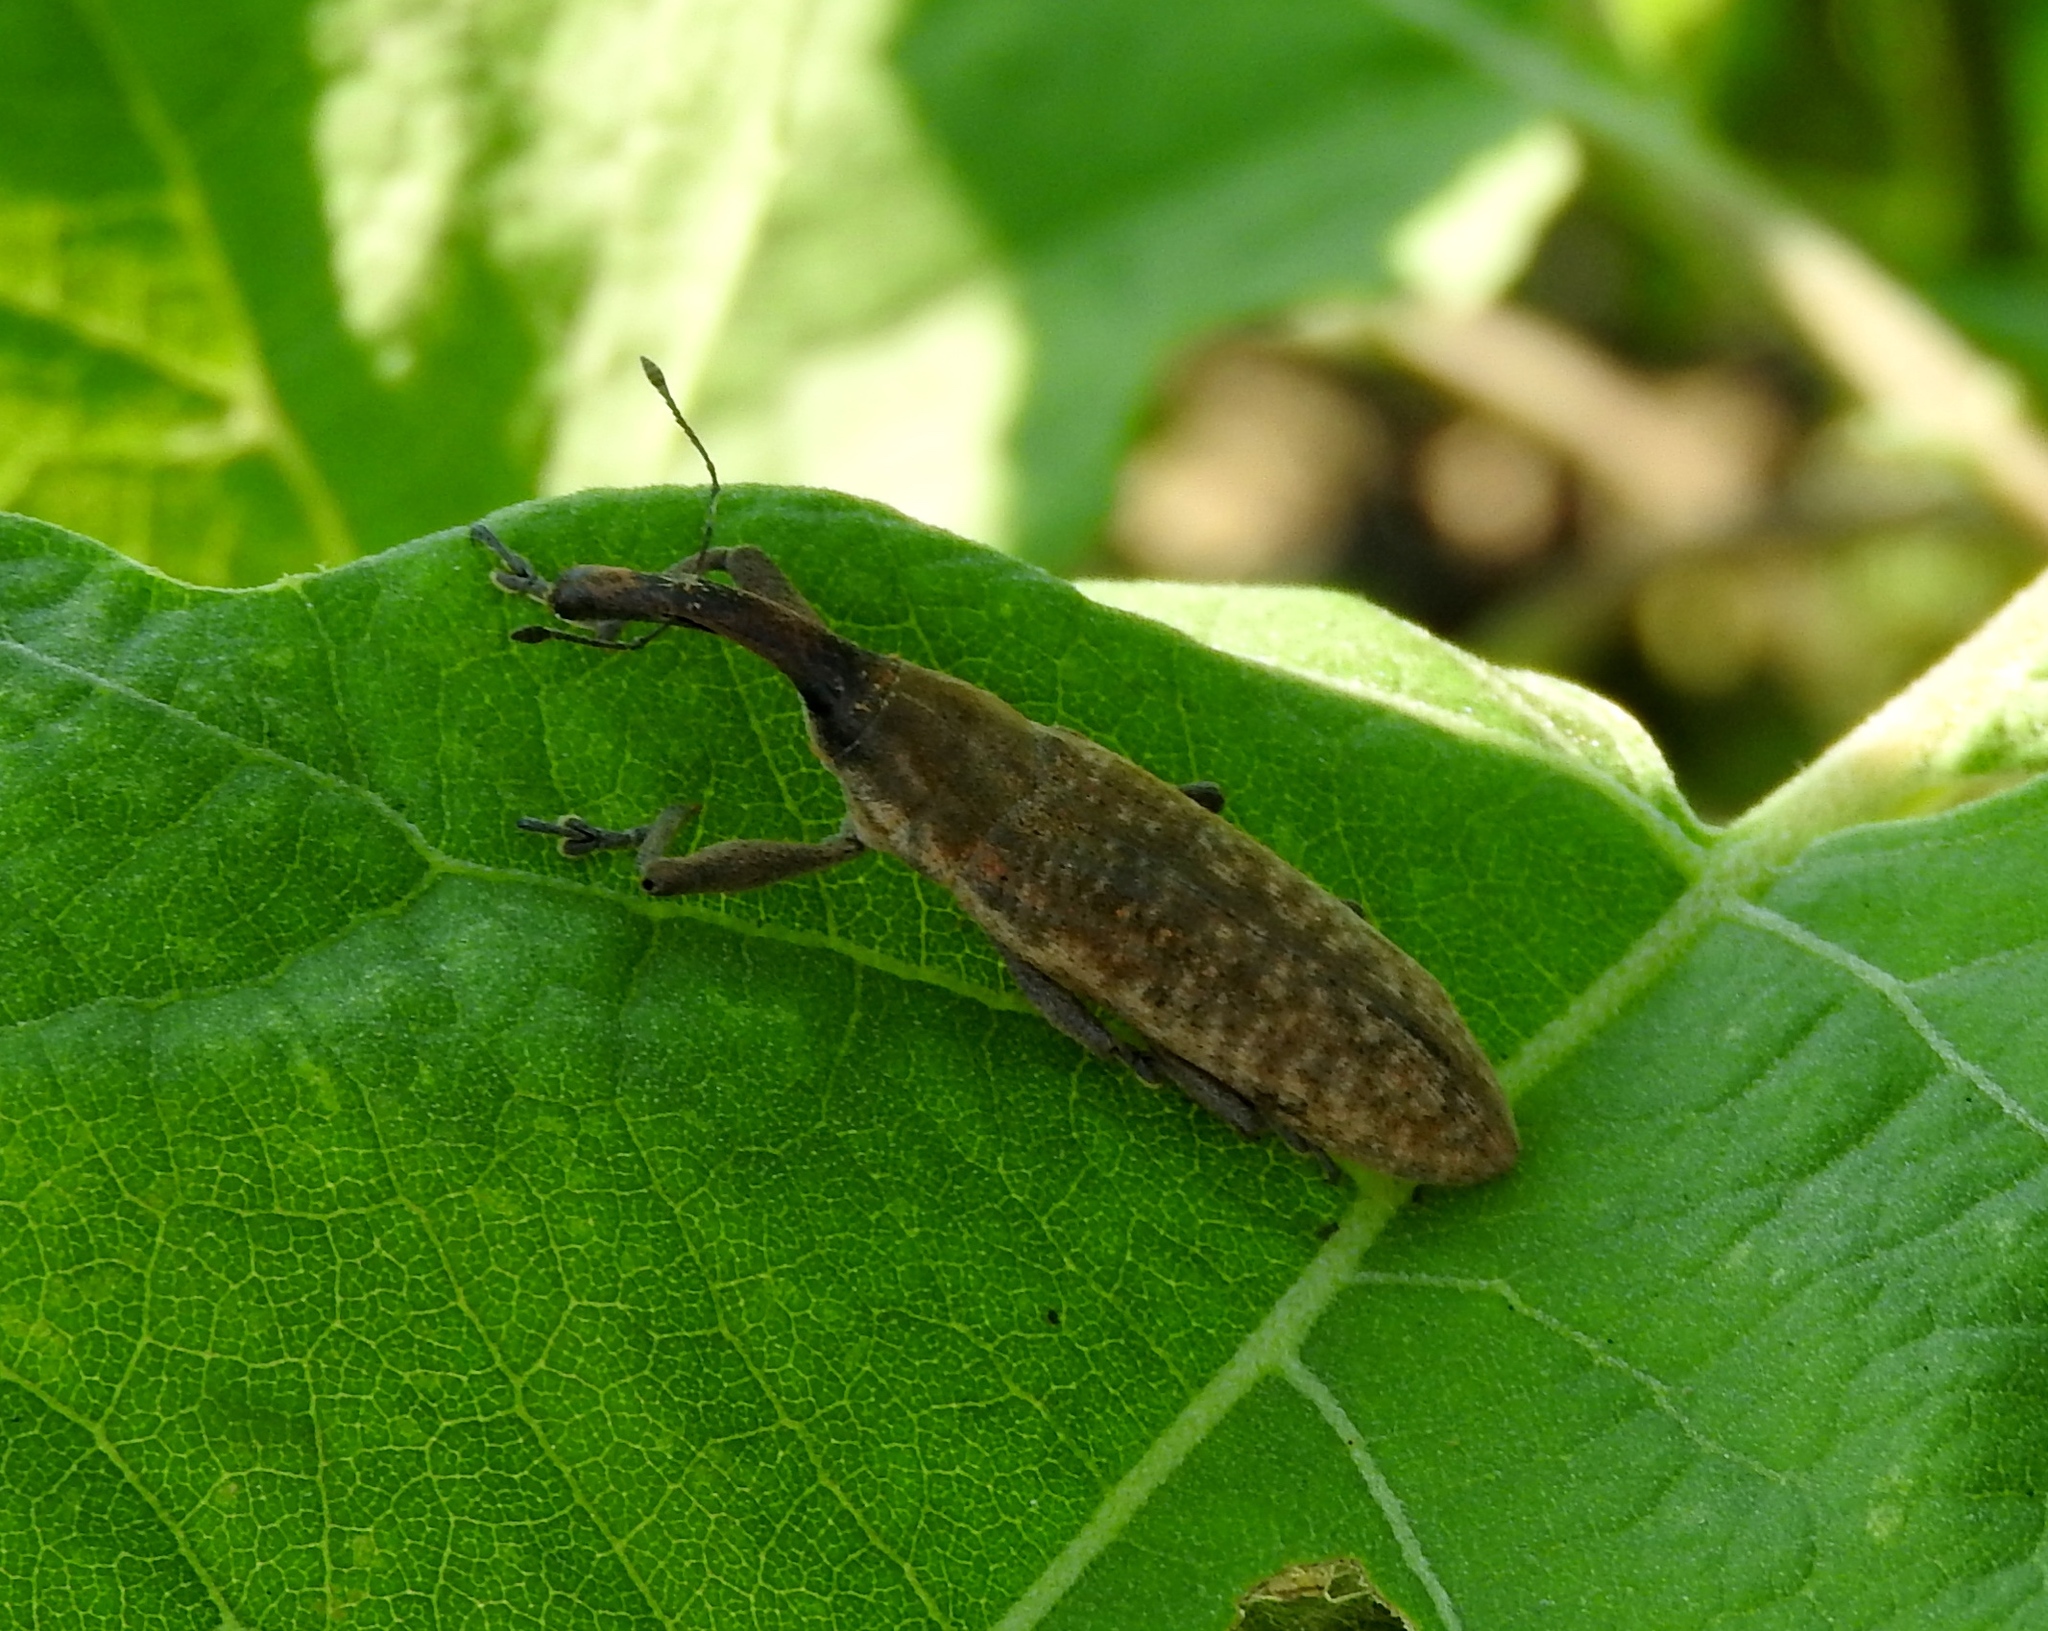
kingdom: Animalia
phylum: Arthropoda
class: Insecta
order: Coleoptera
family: Curculionidae
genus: Lixus
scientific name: Lixus
